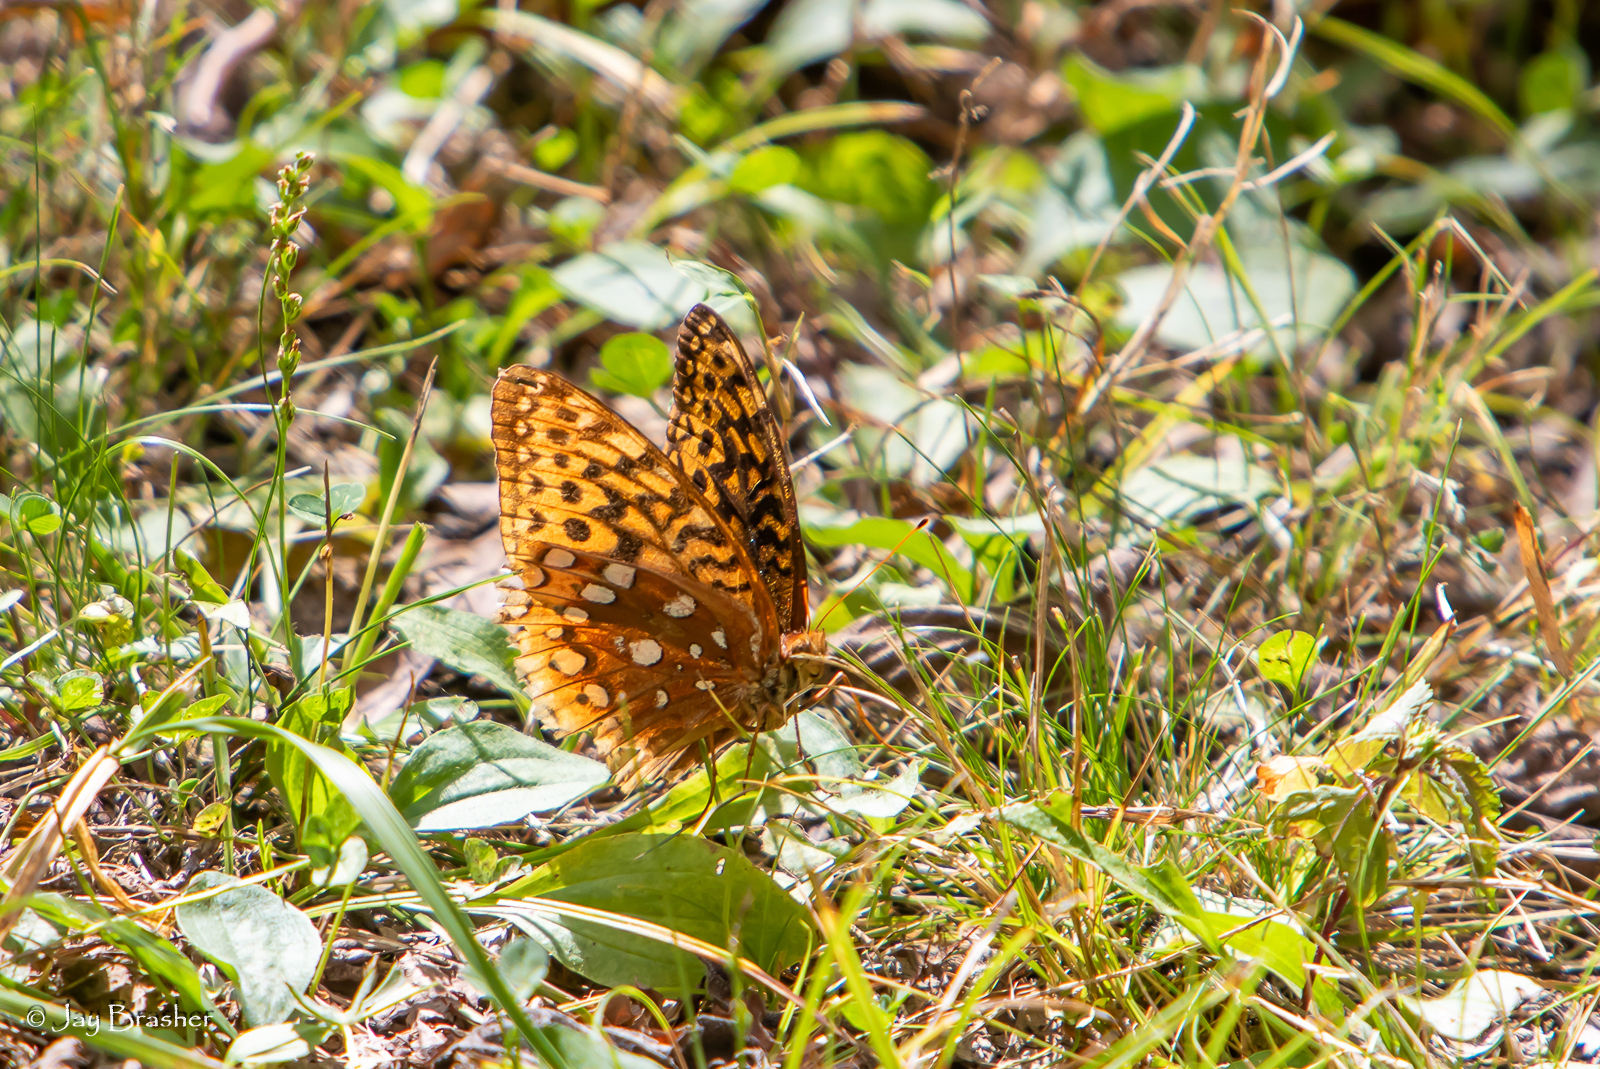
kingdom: Animalia
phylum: Arthropoda
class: Insecta
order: Lepidoptera
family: Nymphalidae
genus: Speyeria
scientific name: Speyeria cybele
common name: Great spangled fritillary
